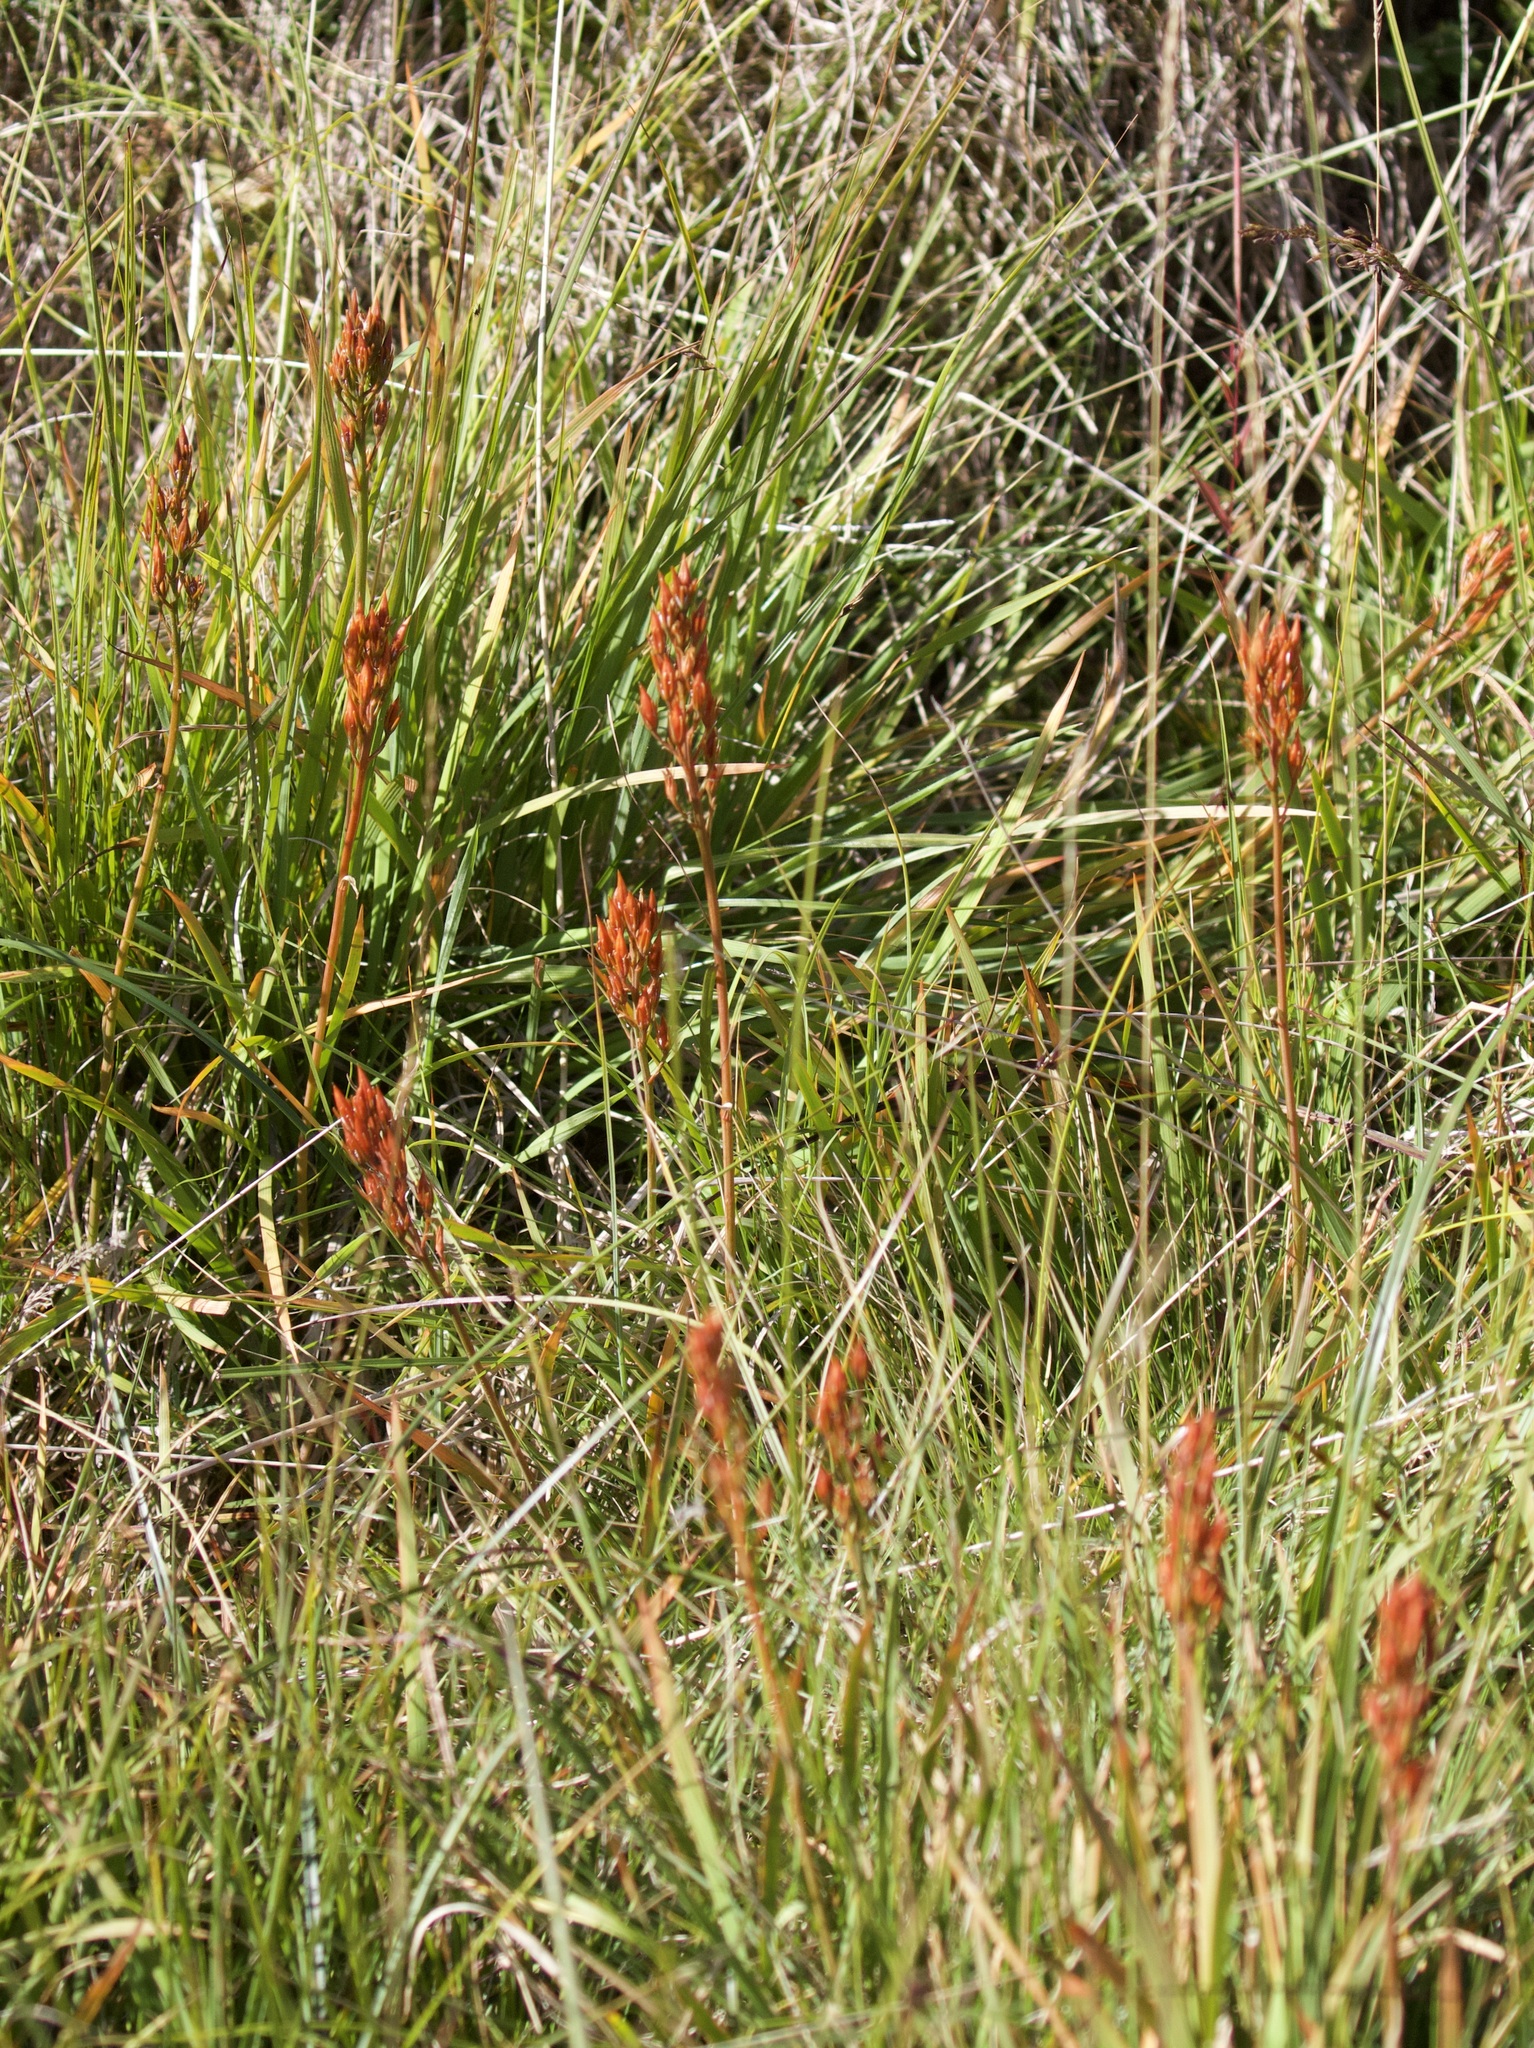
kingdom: Plantae
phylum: Tracheophyta
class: Liliopsida
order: Dioscoreales
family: Nartheciaceae
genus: Narthecium
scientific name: Narthecium ossifragum
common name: Bog asphodel
